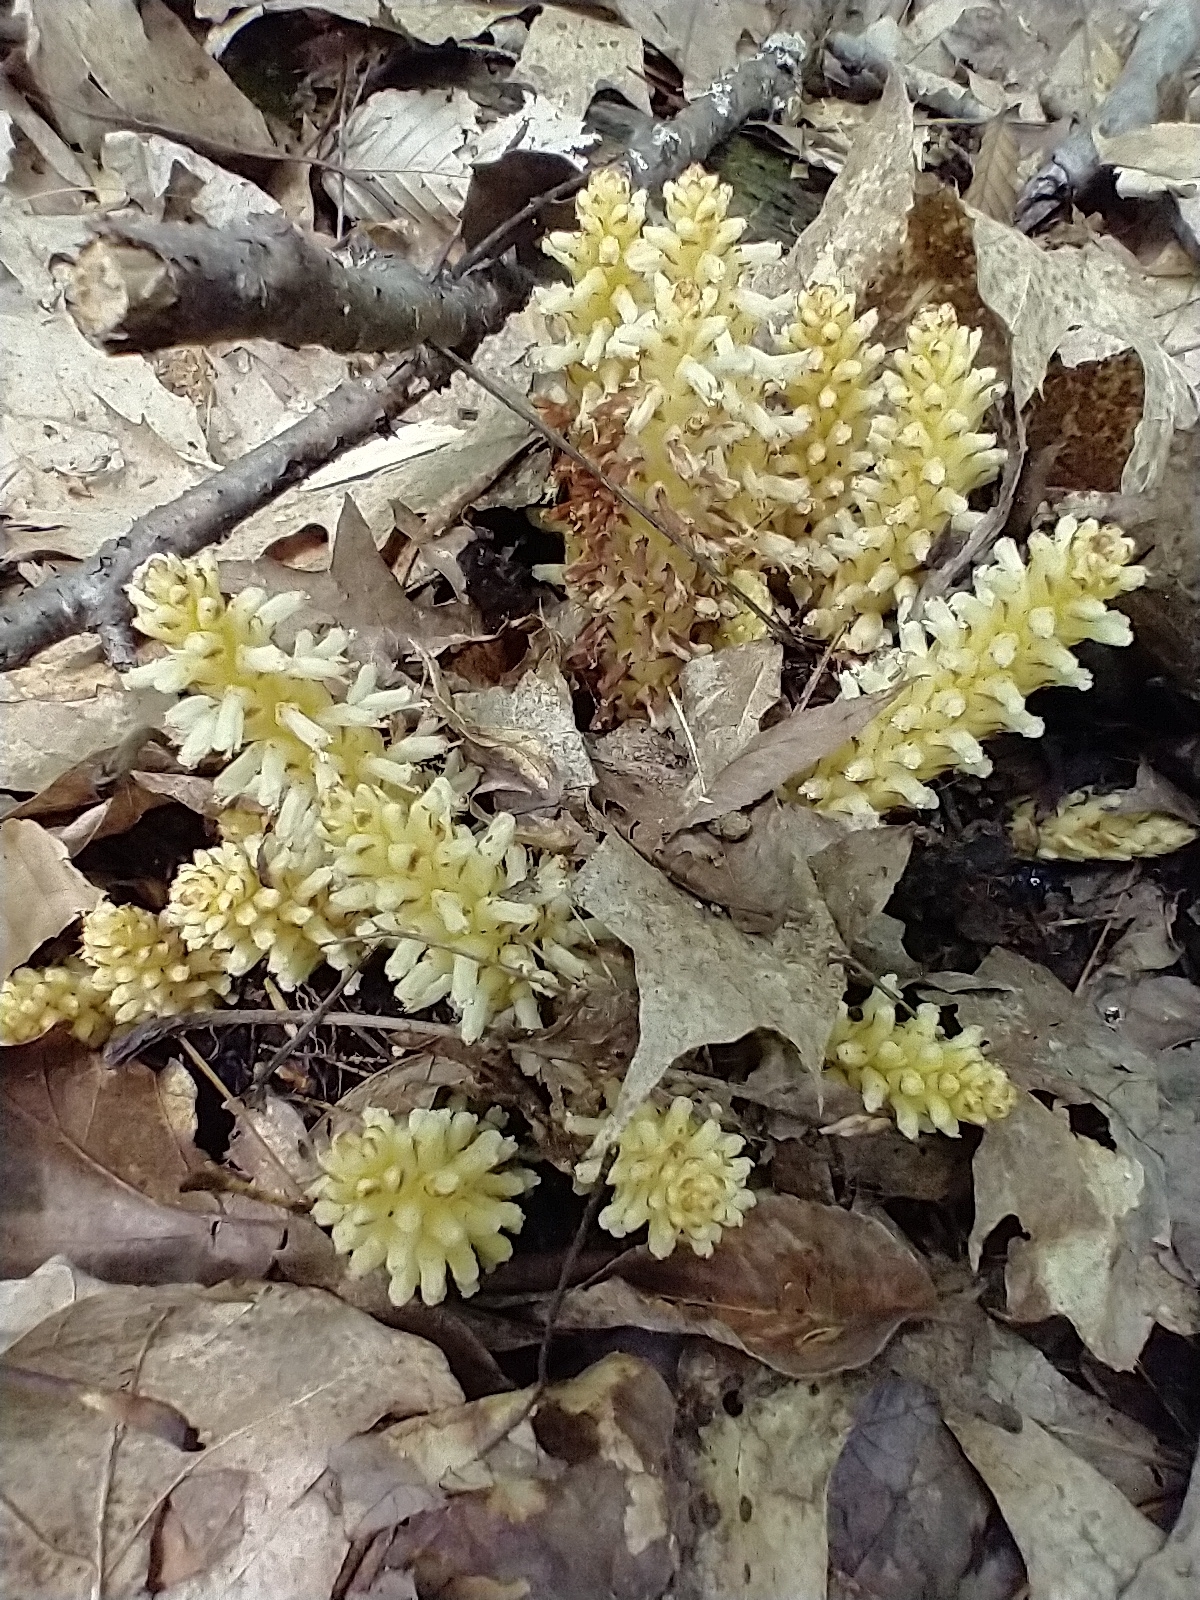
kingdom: Plantae
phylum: Tracheophyta
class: Magnoliopsida
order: Lamiales
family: Orobanchaceae
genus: Conopholis
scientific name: Conopholis americana
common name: American cancer-root
